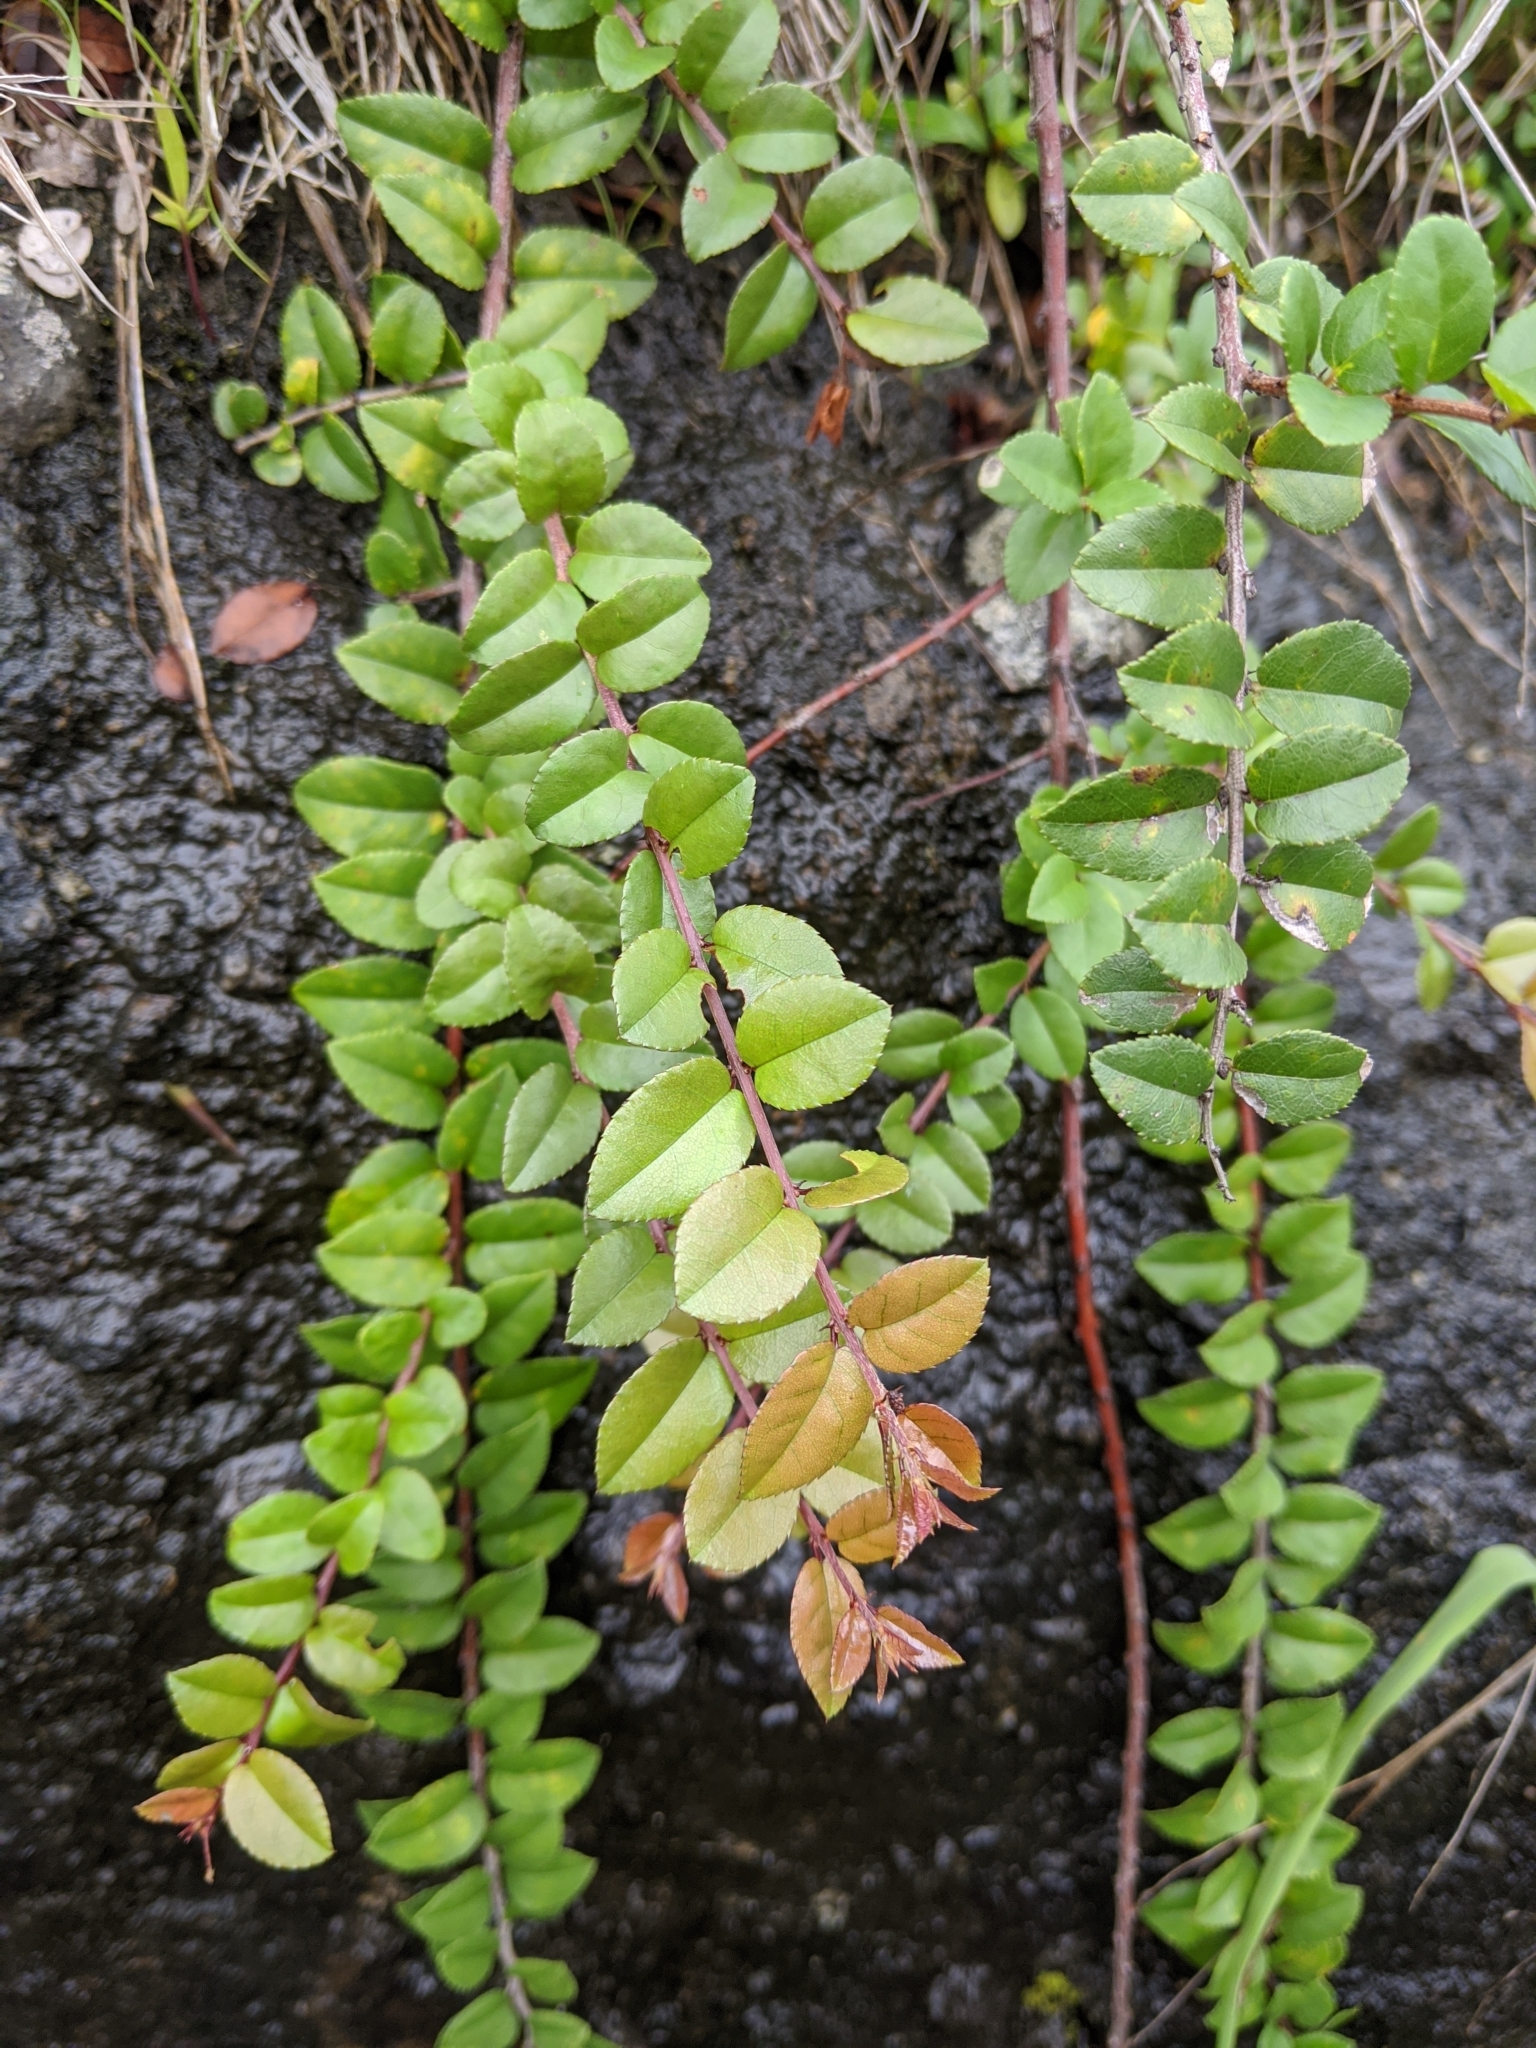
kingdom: Plantae
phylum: Tracheophyta
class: Magnoliopsida
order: Rosales
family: Rhamnaceae
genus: Sageretia
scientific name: Sageretia thea
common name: Pauper's-tea
